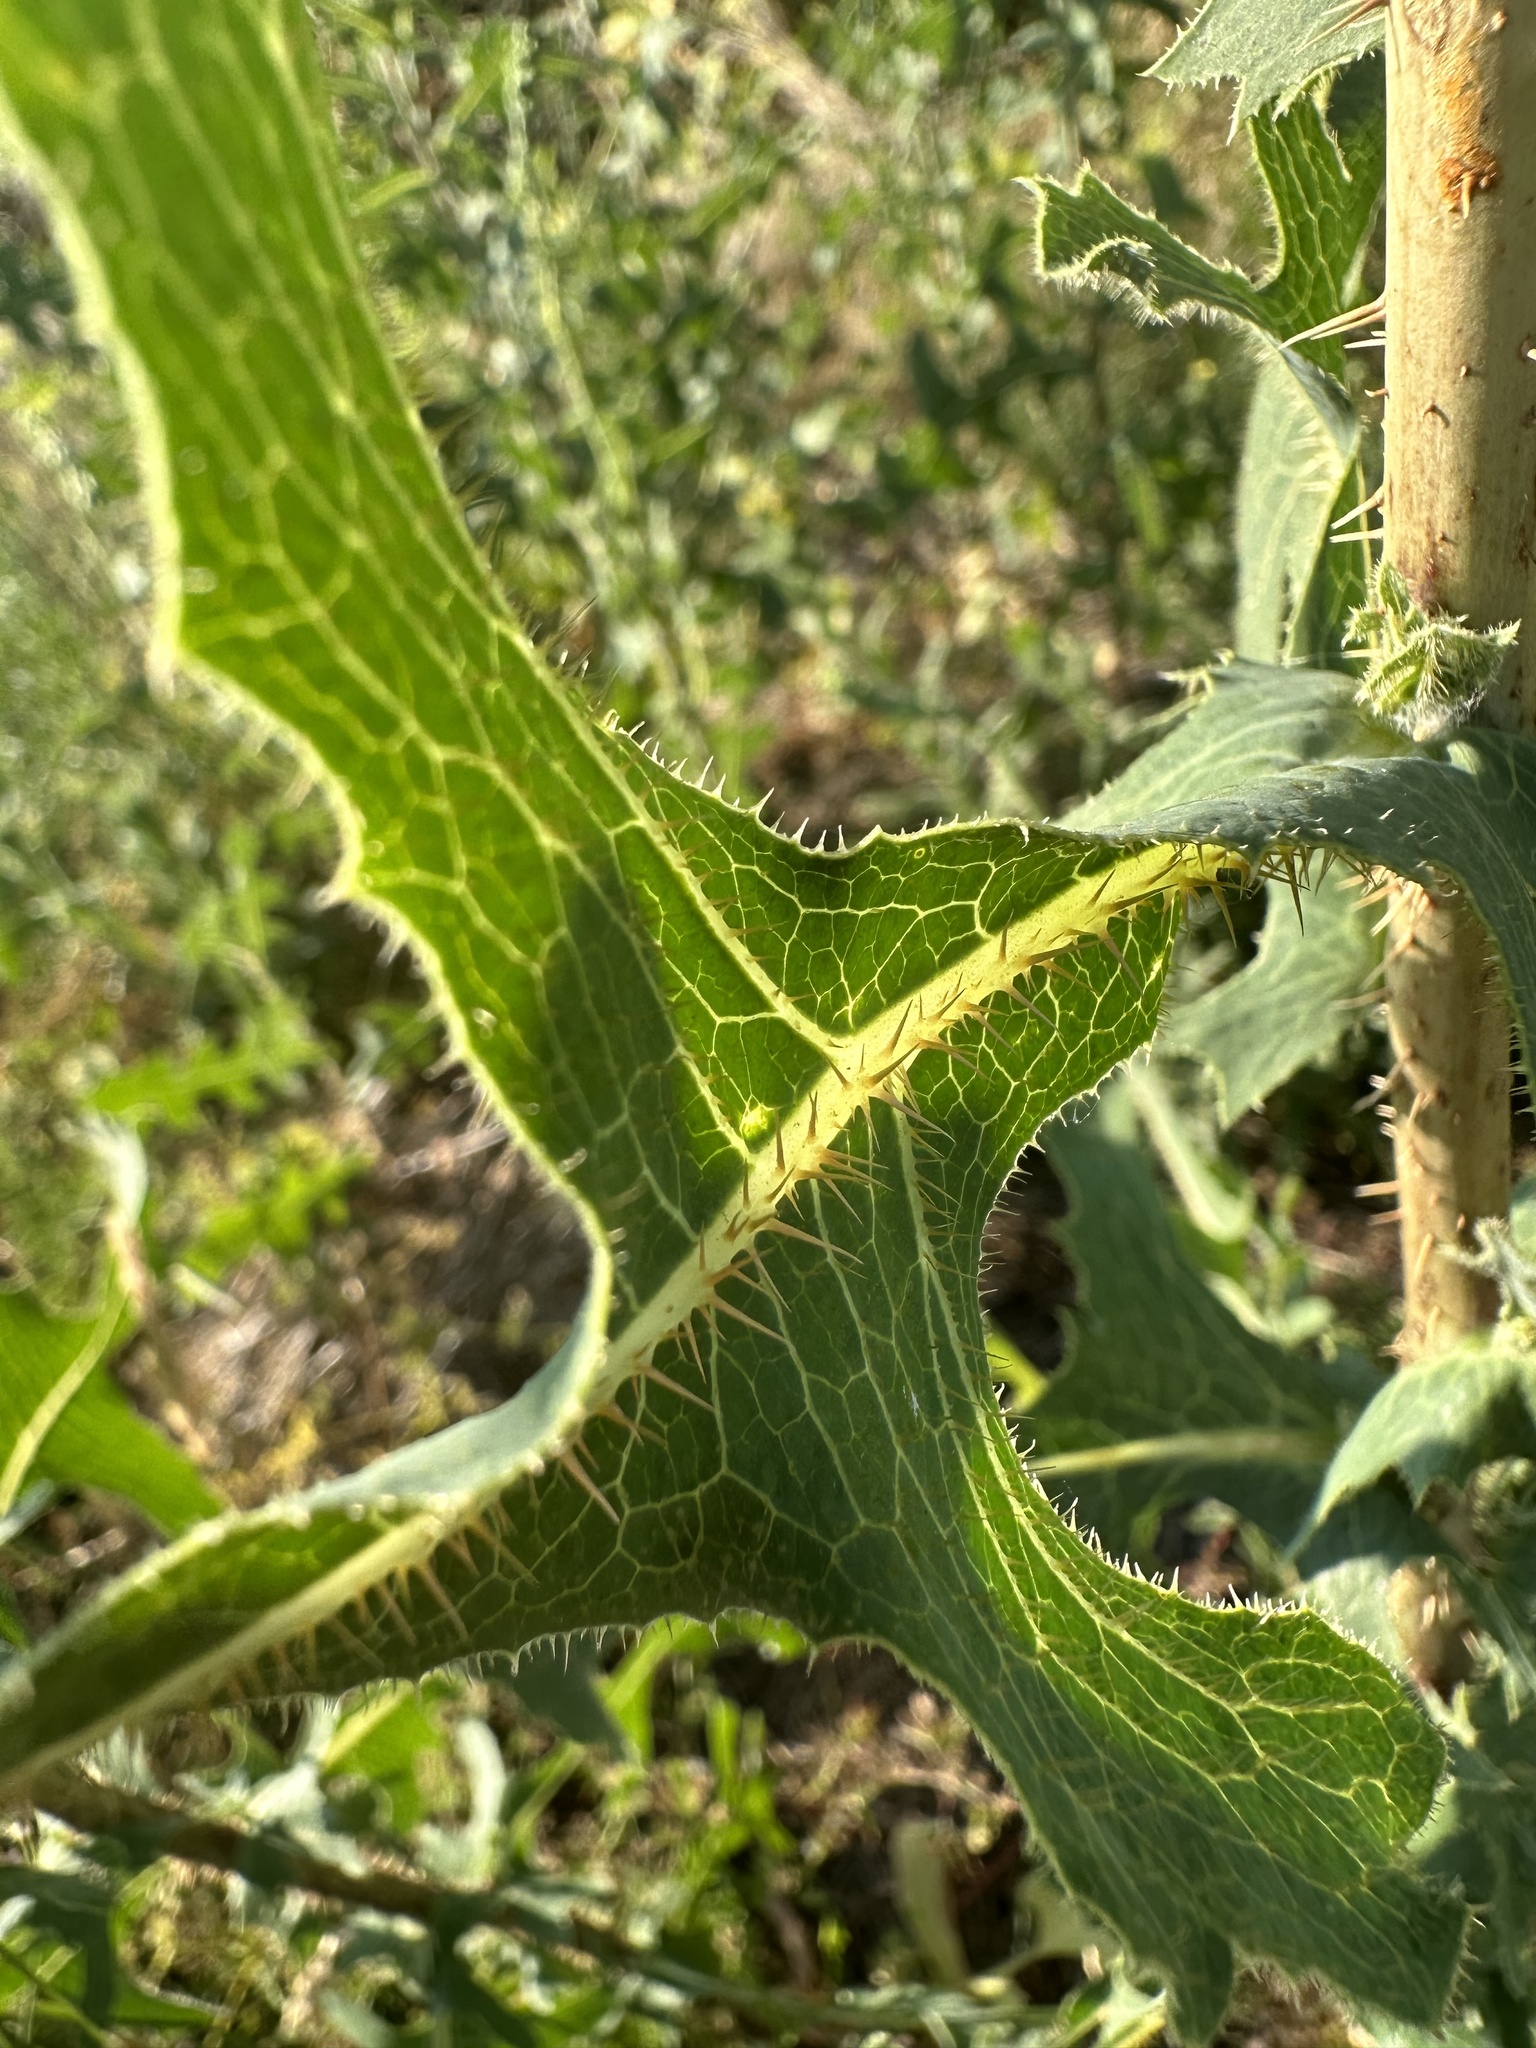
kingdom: Plantae
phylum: Tracheophyta
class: Magnoliopsida
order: Asterales
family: Asteraceae
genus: Lactuca
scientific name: Lactuca serriola
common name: Prickly lettuce
